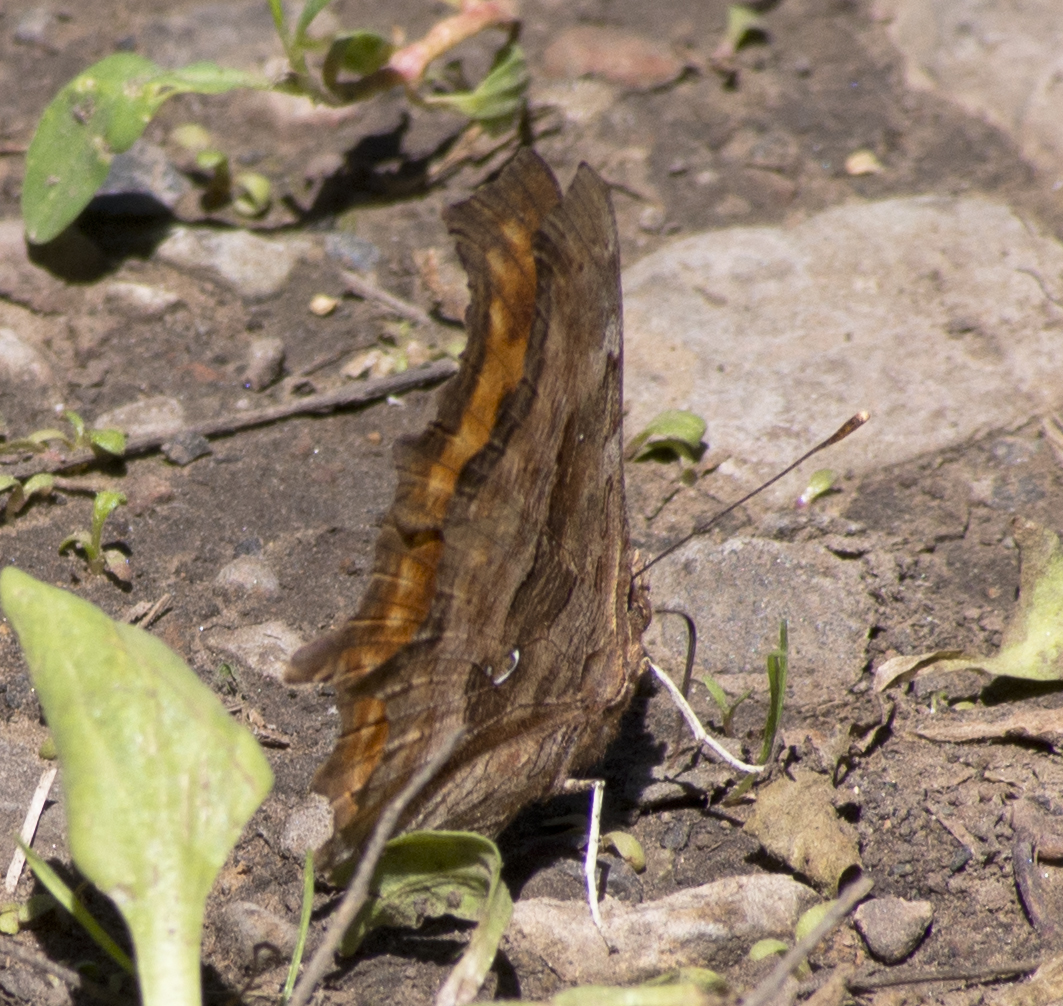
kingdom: Animalia
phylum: Arthropoda
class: Insecta
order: Lepidoptera
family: Nymphalidae
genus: Polygonia
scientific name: Polygonia satyrus
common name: Satyr angle wing
